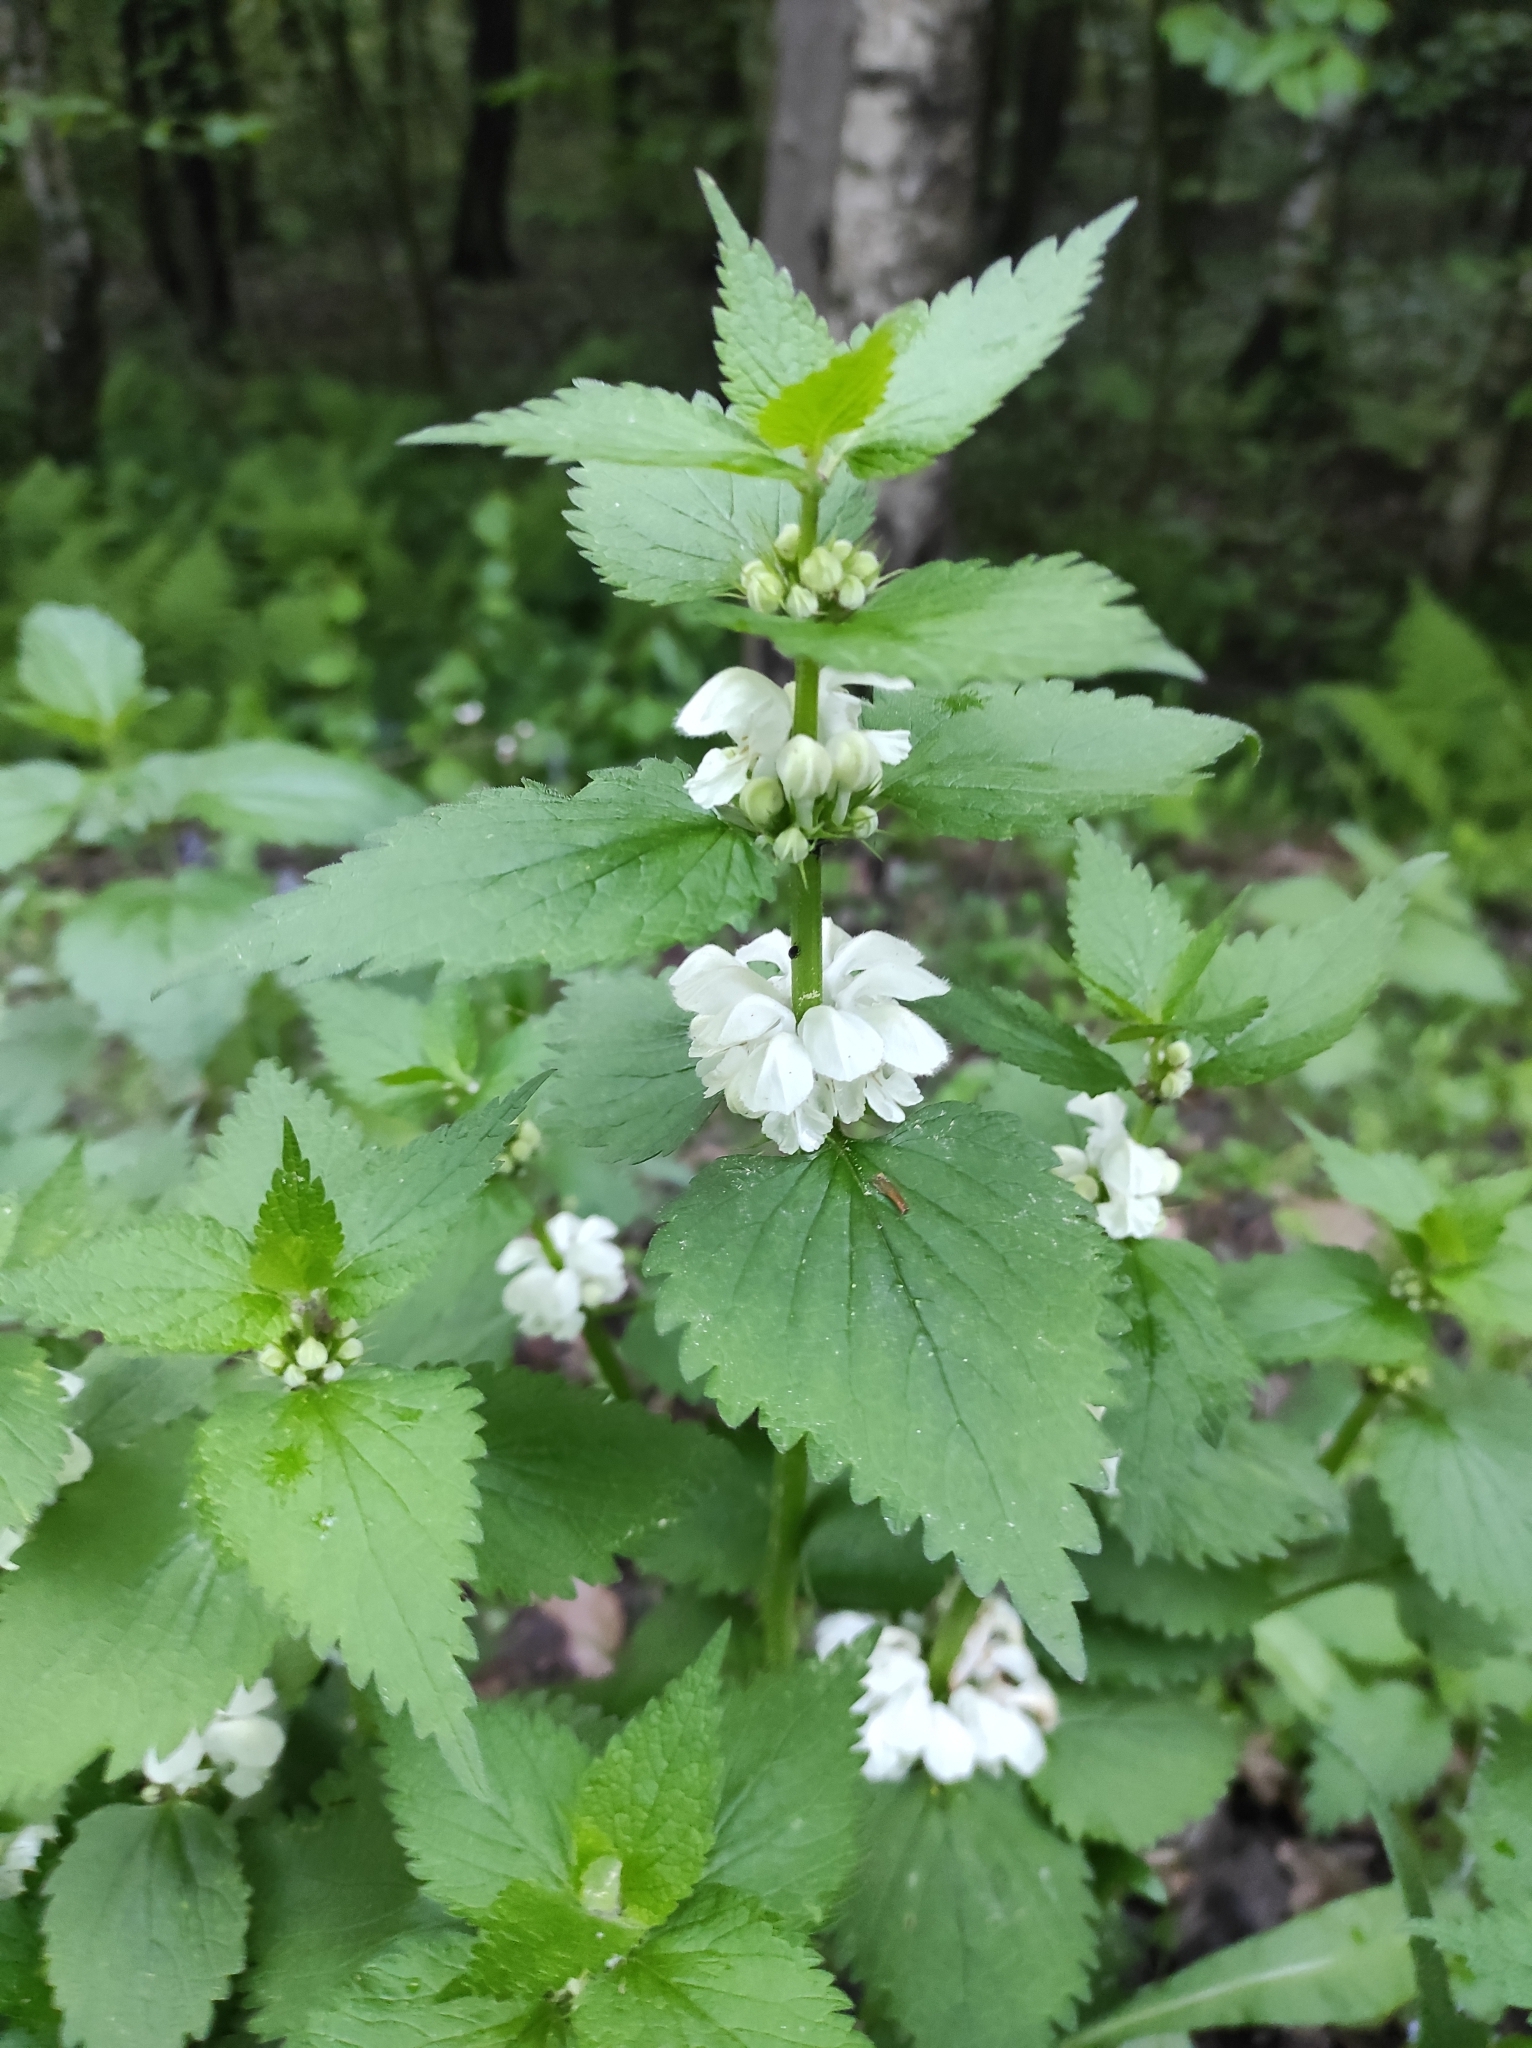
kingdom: Plantae
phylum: Tracheophyta
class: Magnoliopsida
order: Lamiales
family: Lamiaceae
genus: Lamium
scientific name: Lamium album
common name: White dead-nettle
